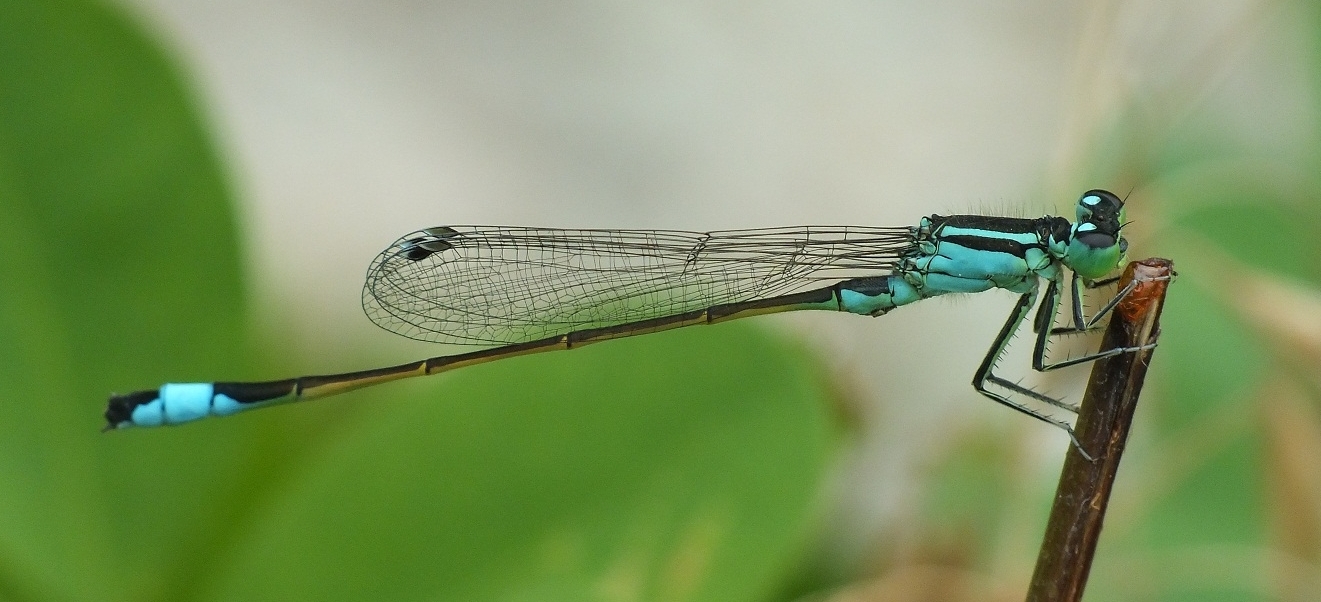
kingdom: Animalia
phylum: Arthropoda
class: Insecta
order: Odonata
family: Coenagrionidae
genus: Ischnura
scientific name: Ischnura elegans
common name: Blue-tailed damselfly
